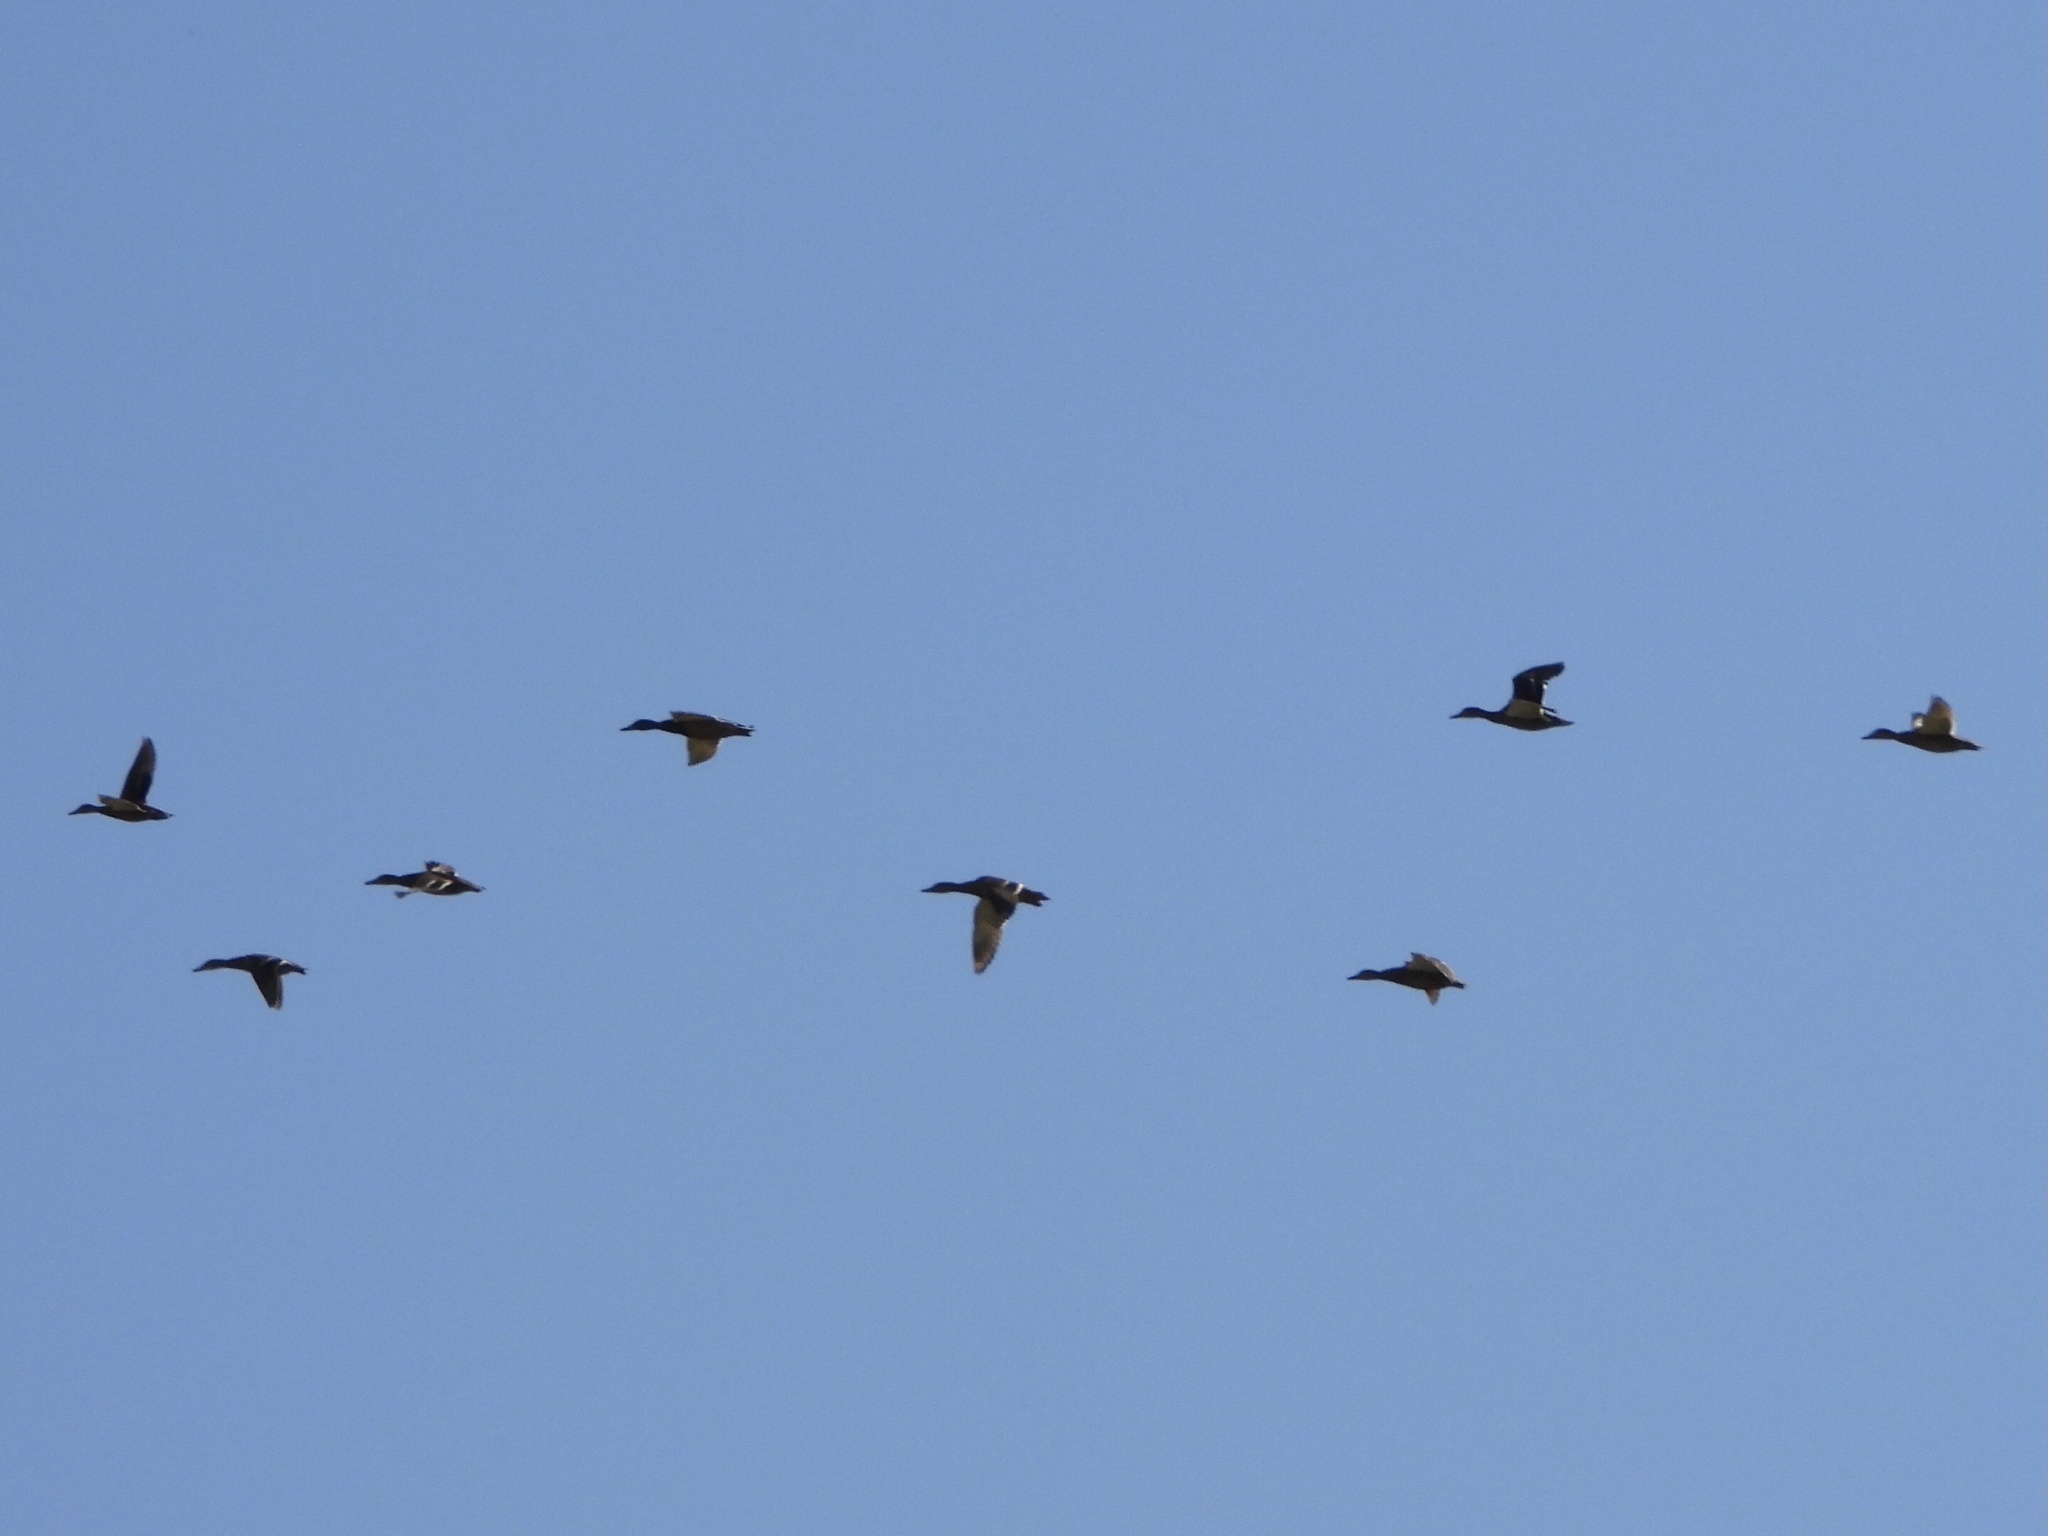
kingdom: Animalia
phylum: Chordata
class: Aves
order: Anseriformes
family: Anatidae
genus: Anas
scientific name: Anas platyrhynchos
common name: Mallard
